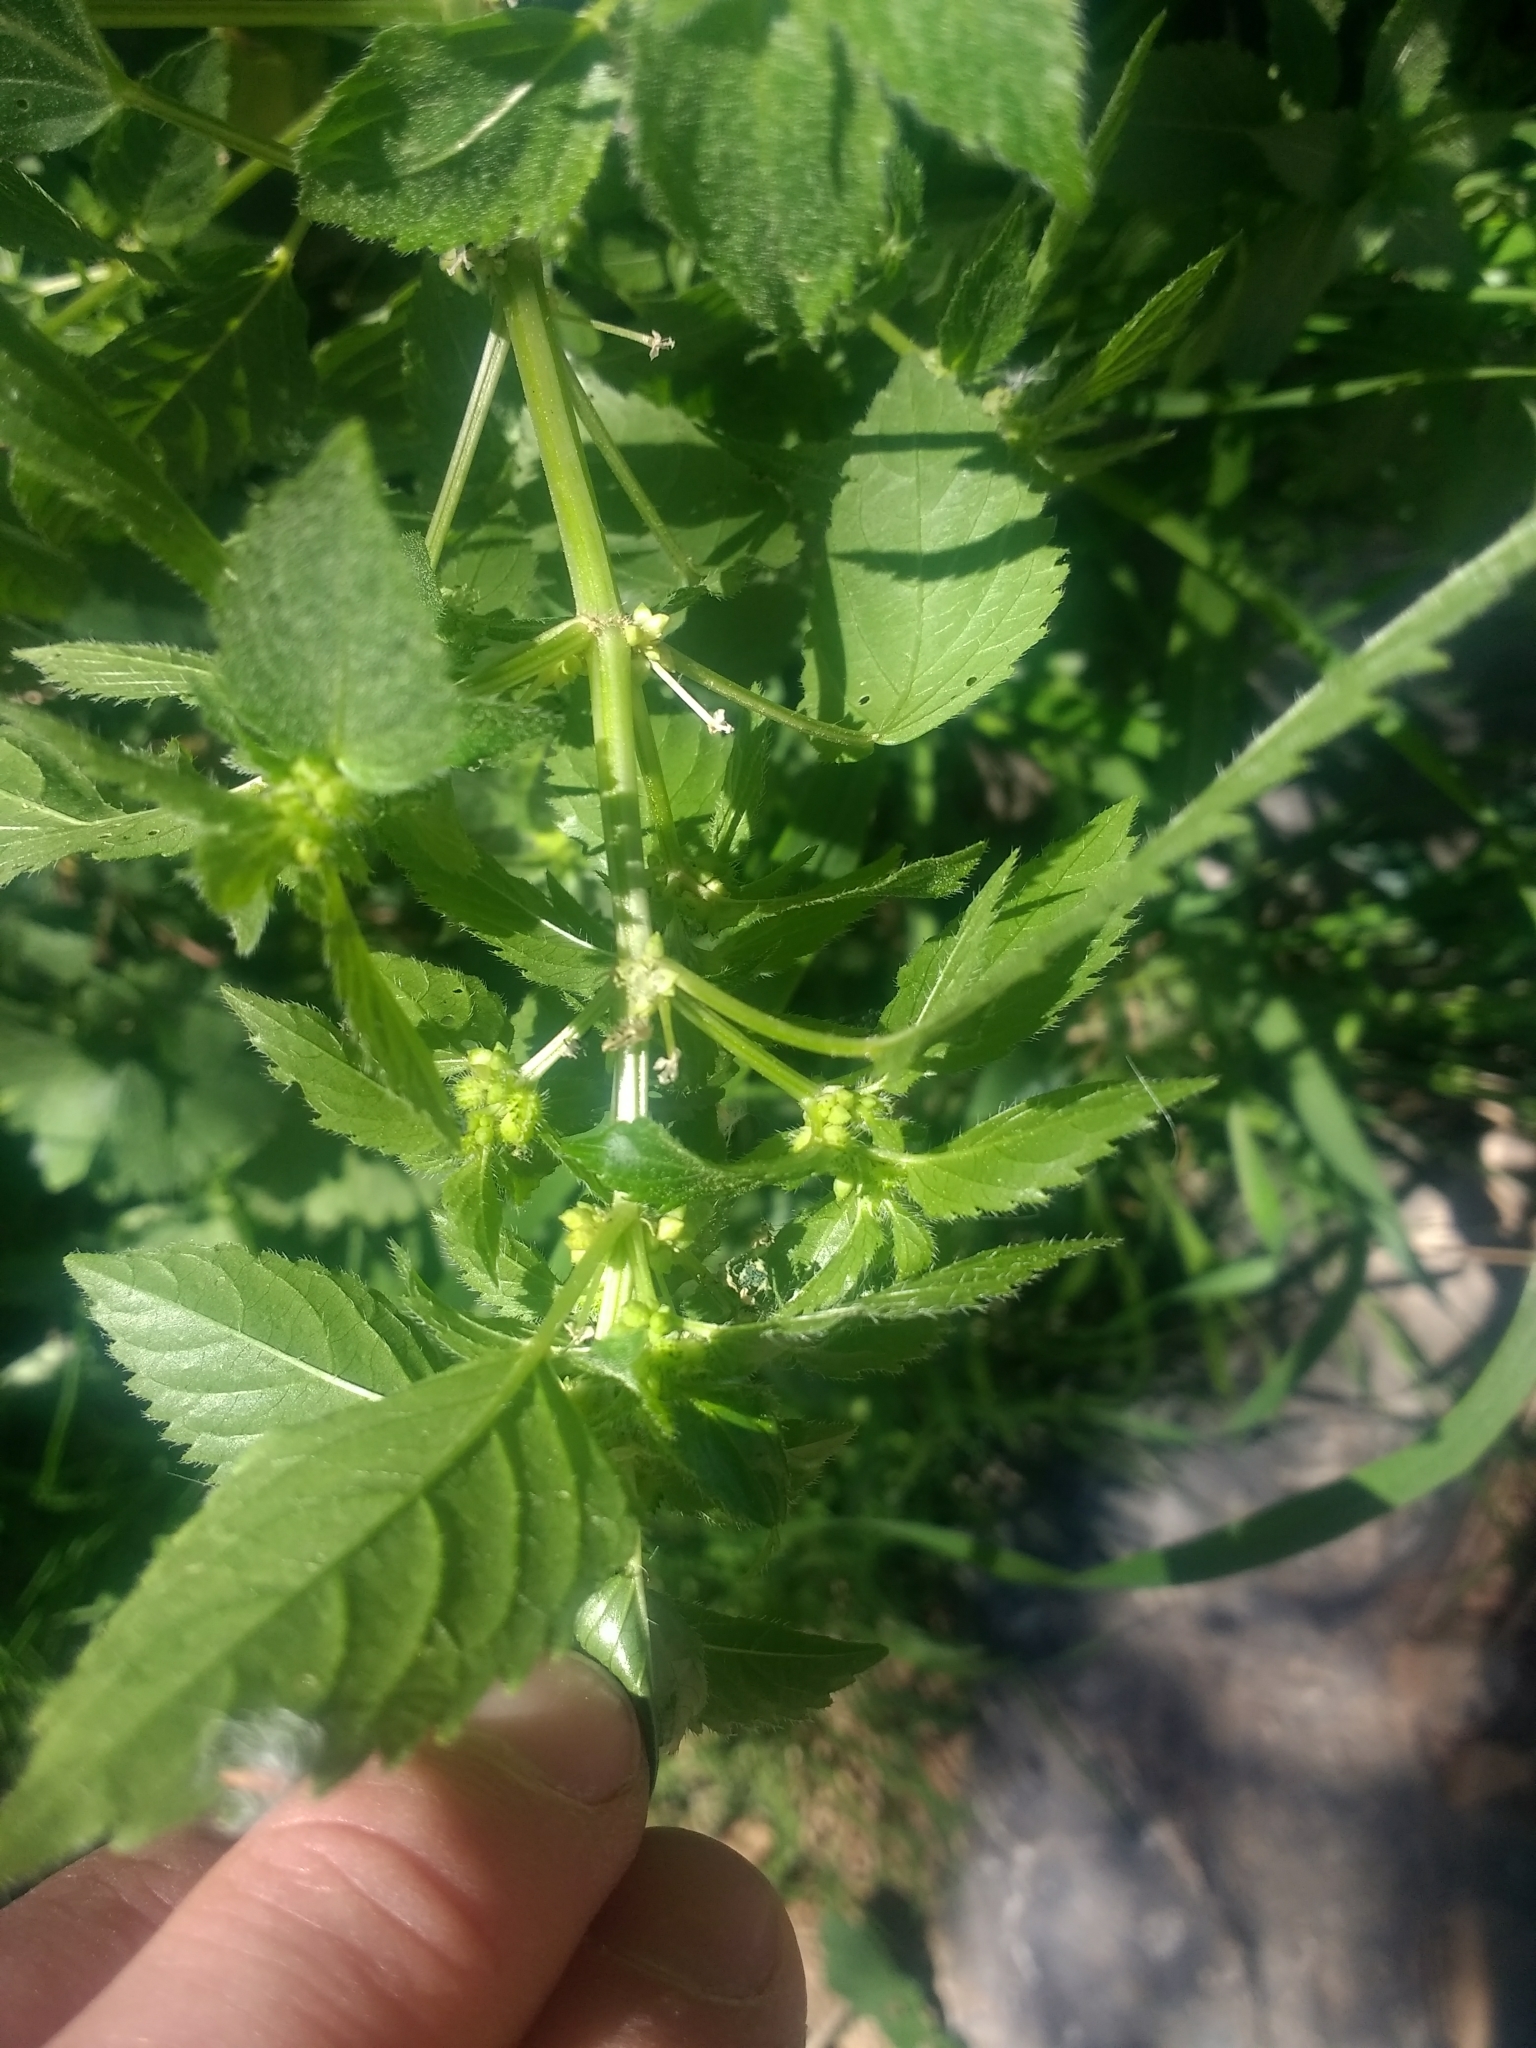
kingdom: Plantae
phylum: Tracheophyta
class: Magnoliopsida
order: Malpighiales
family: Euphorbiaceae
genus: Mercurialis
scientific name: Mercurialis annua
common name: Annual mercury
